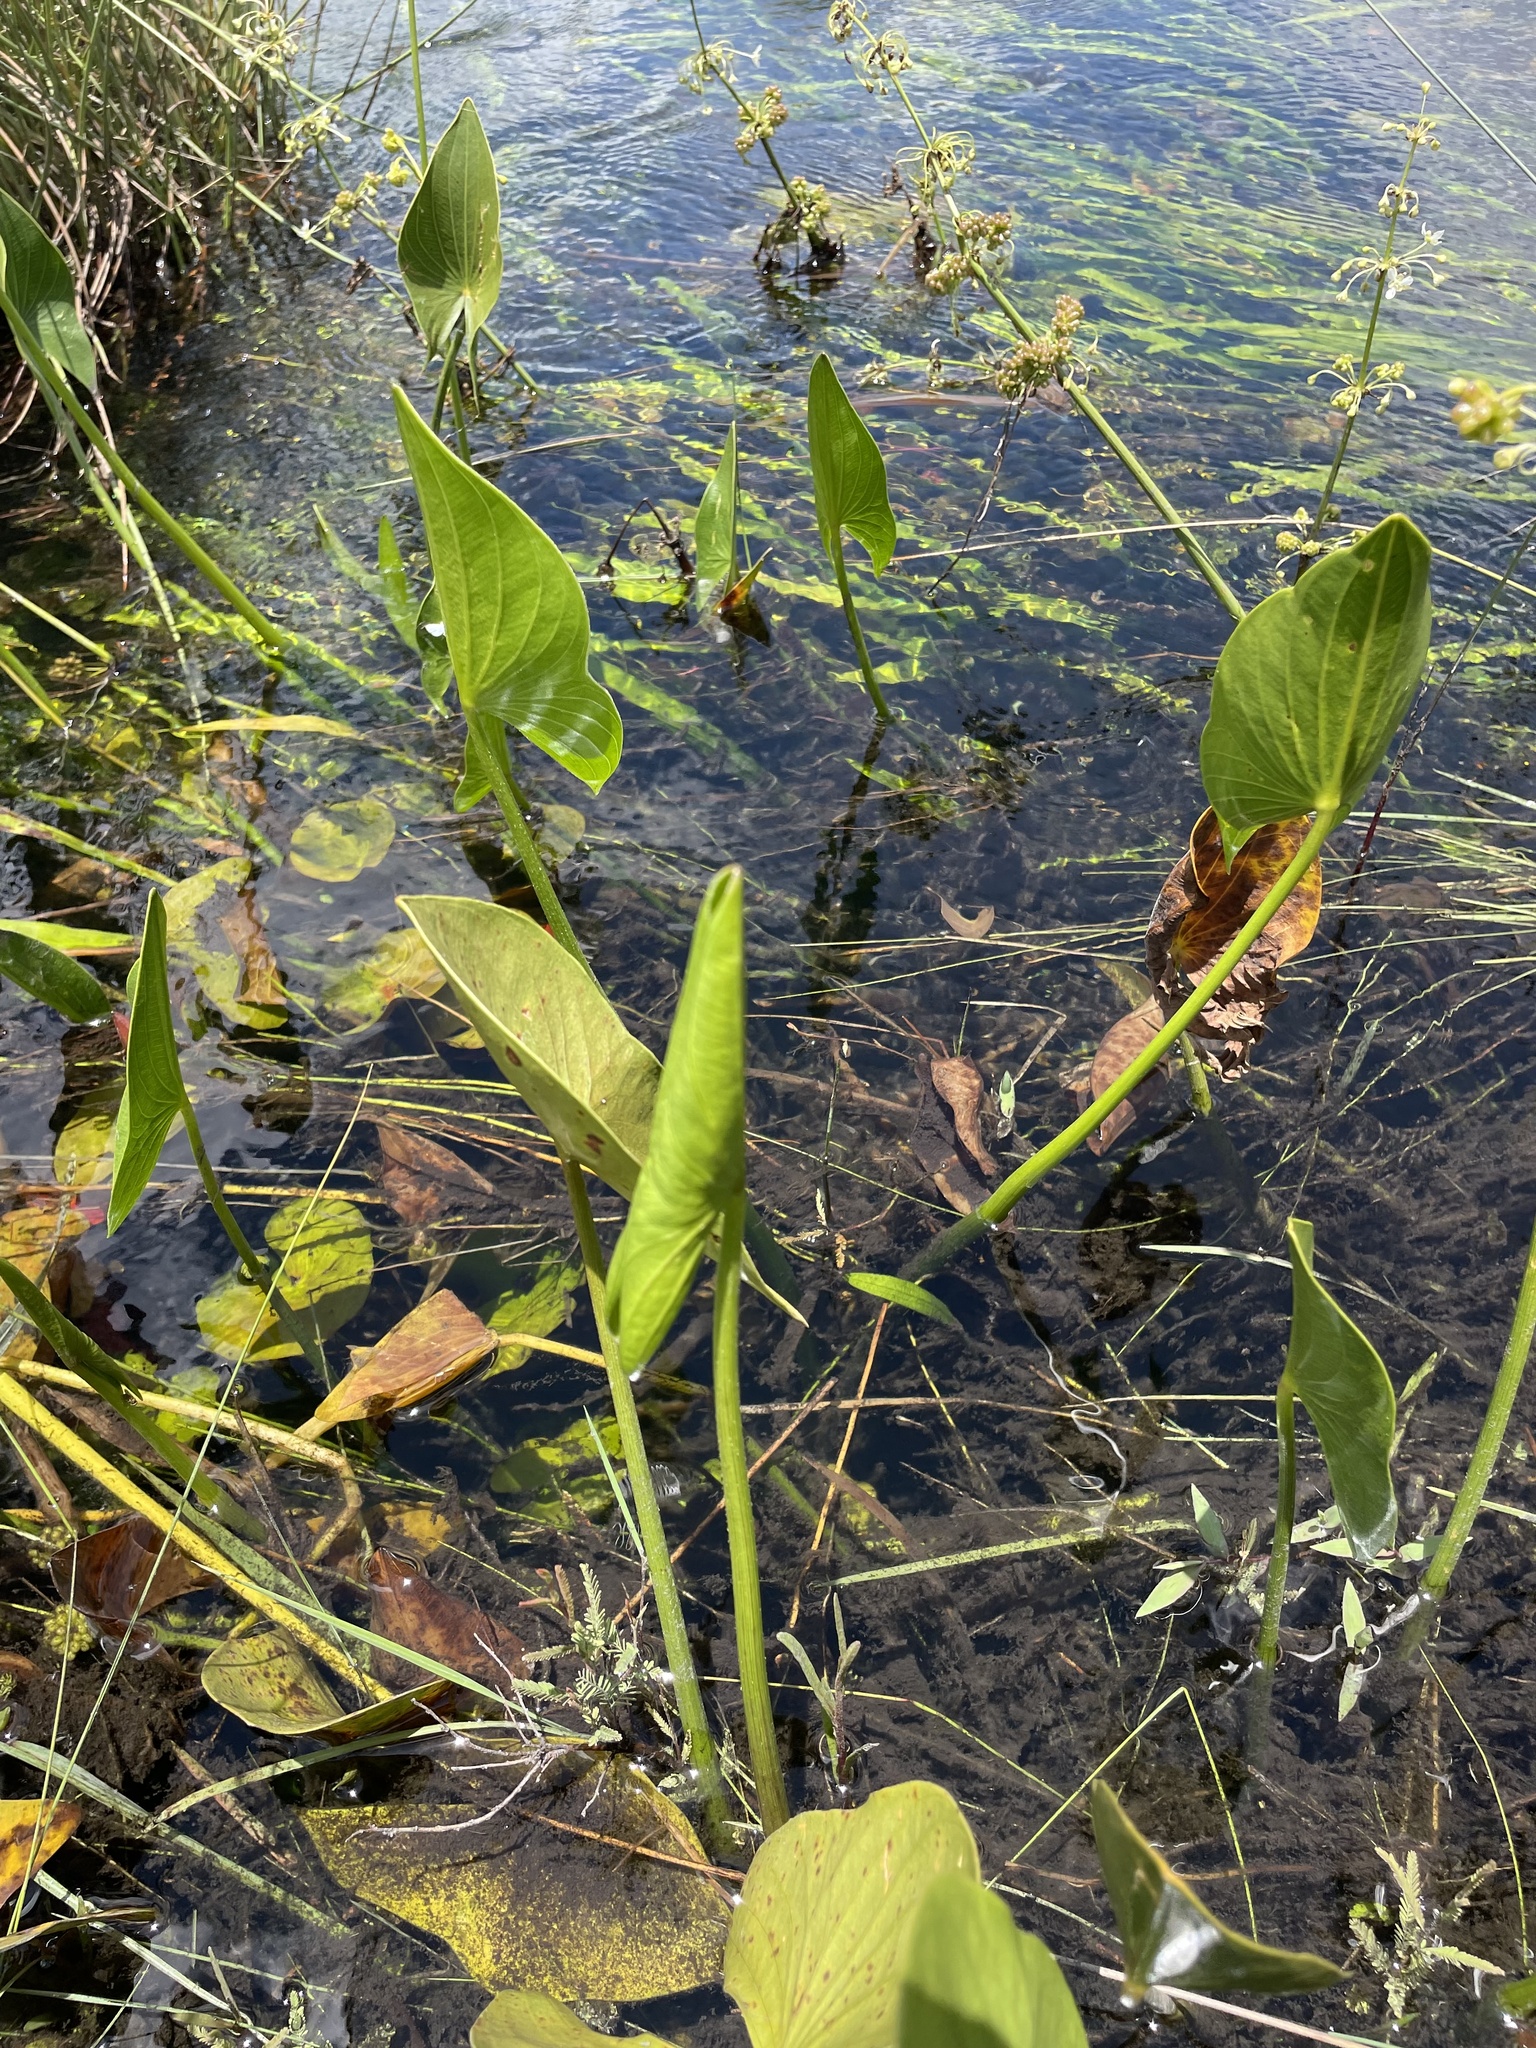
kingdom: Plantae
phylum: Tracheophyta
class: Liliopsida
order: Alismatales
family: Alismataceae
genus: Limnophyton
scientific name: Limnophyton angolense
